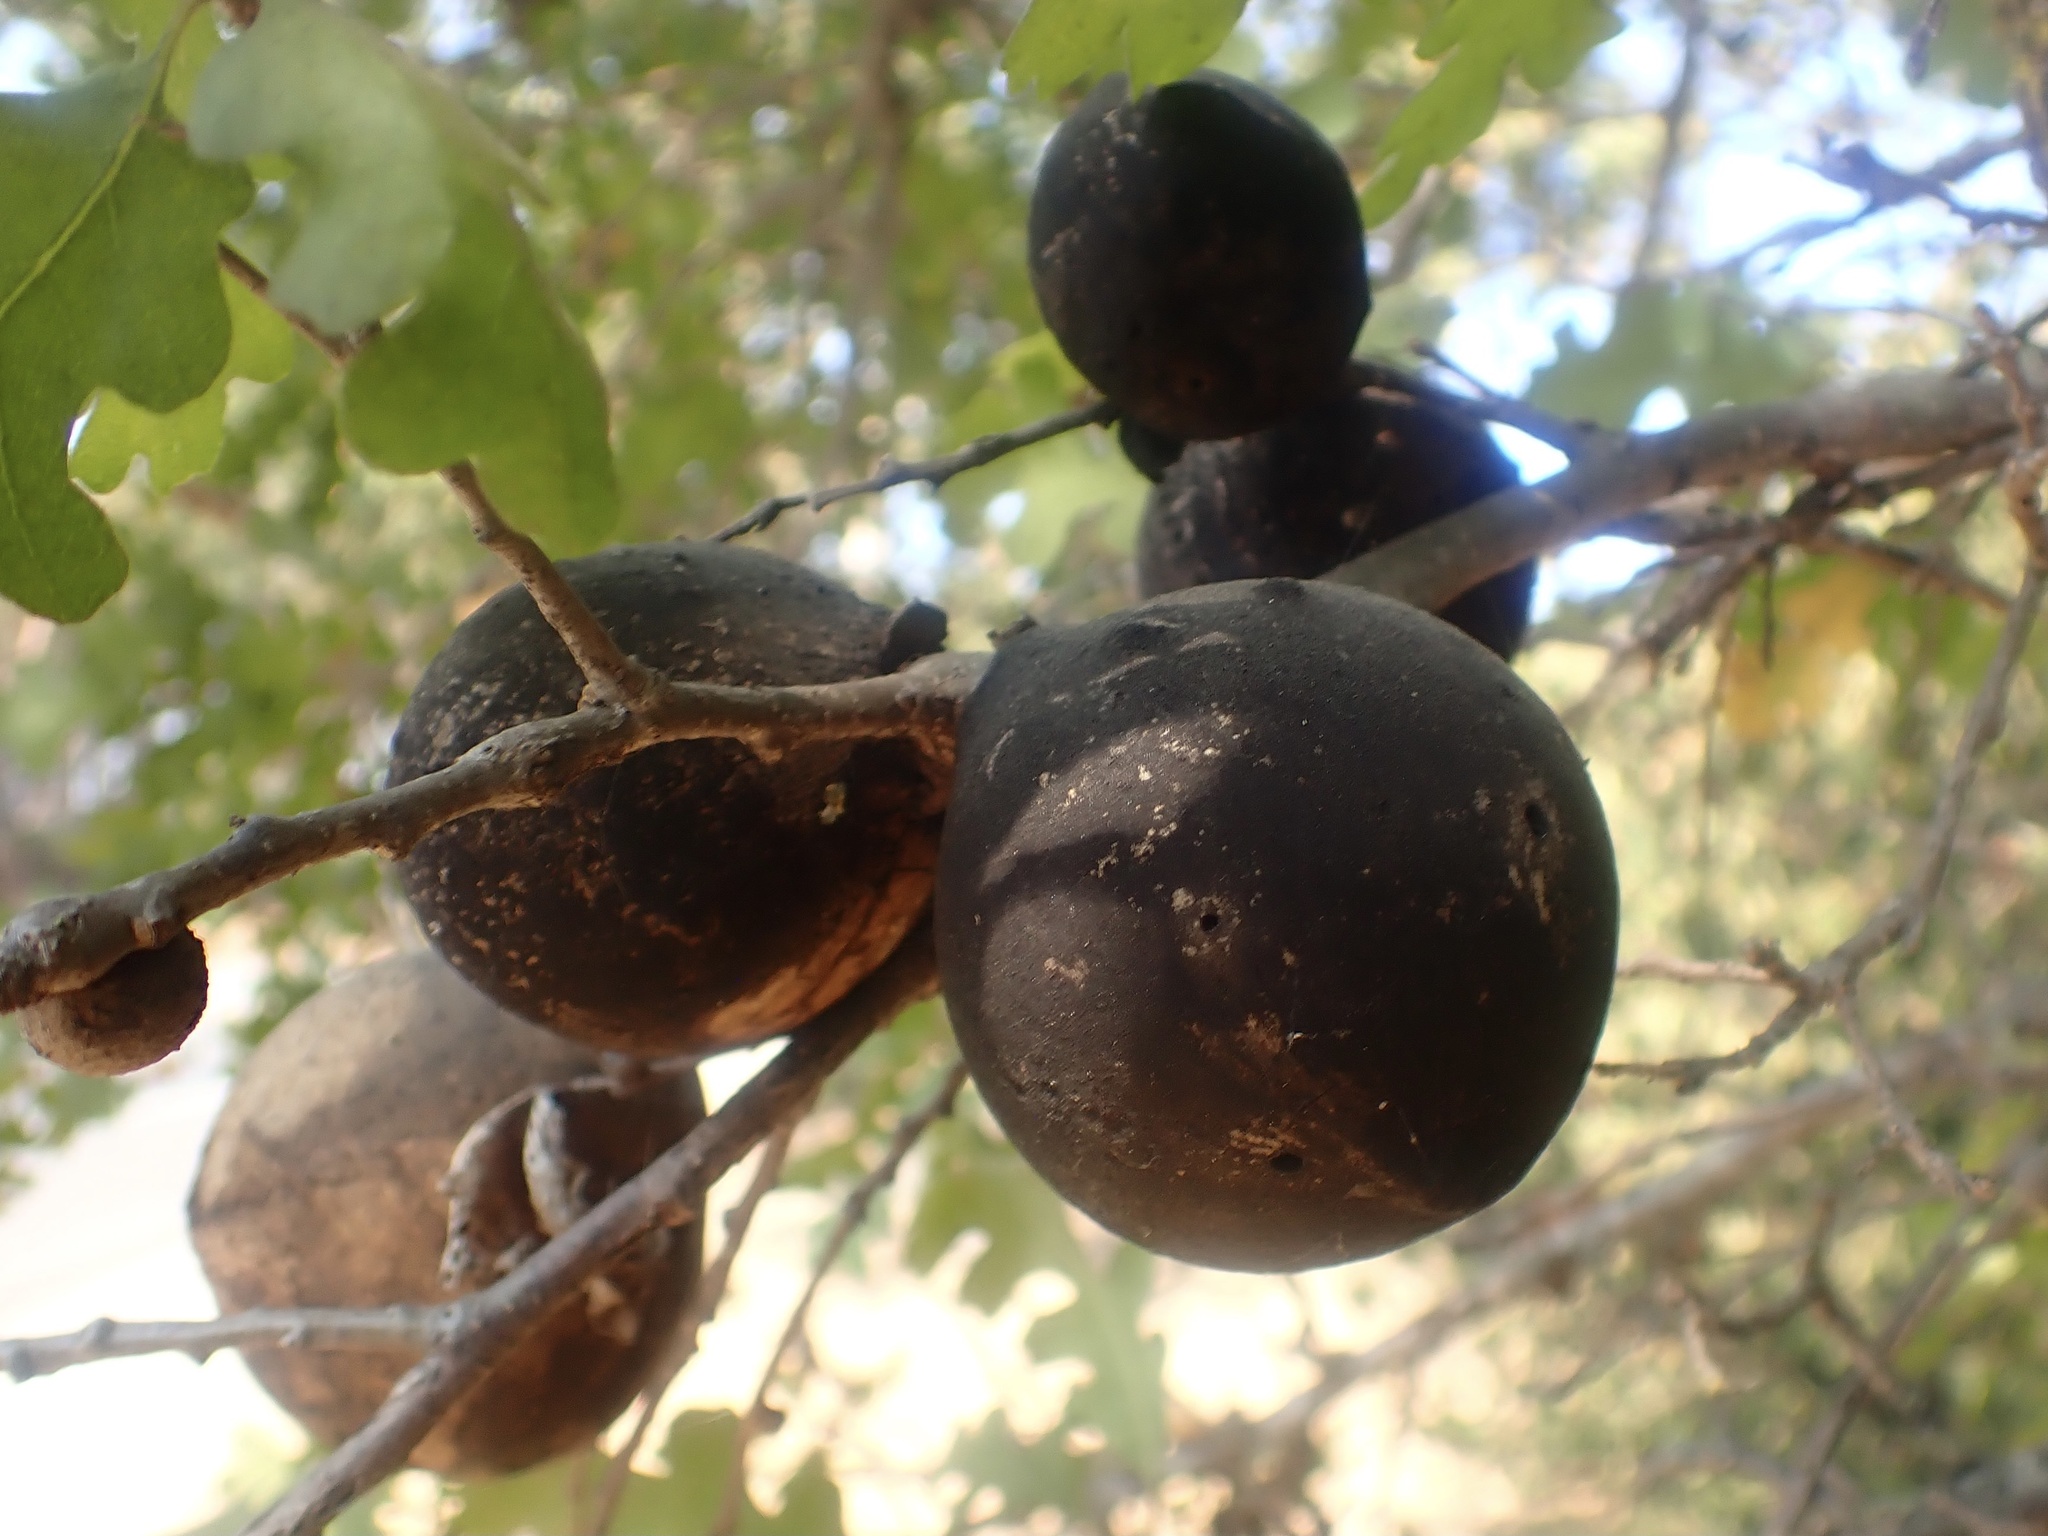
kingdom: Animalia
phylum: Arthropoda
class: Insecta
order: Hymenoptera
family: Cynipidae
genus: Andricus
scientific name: Andricus quercuscalifornicus
